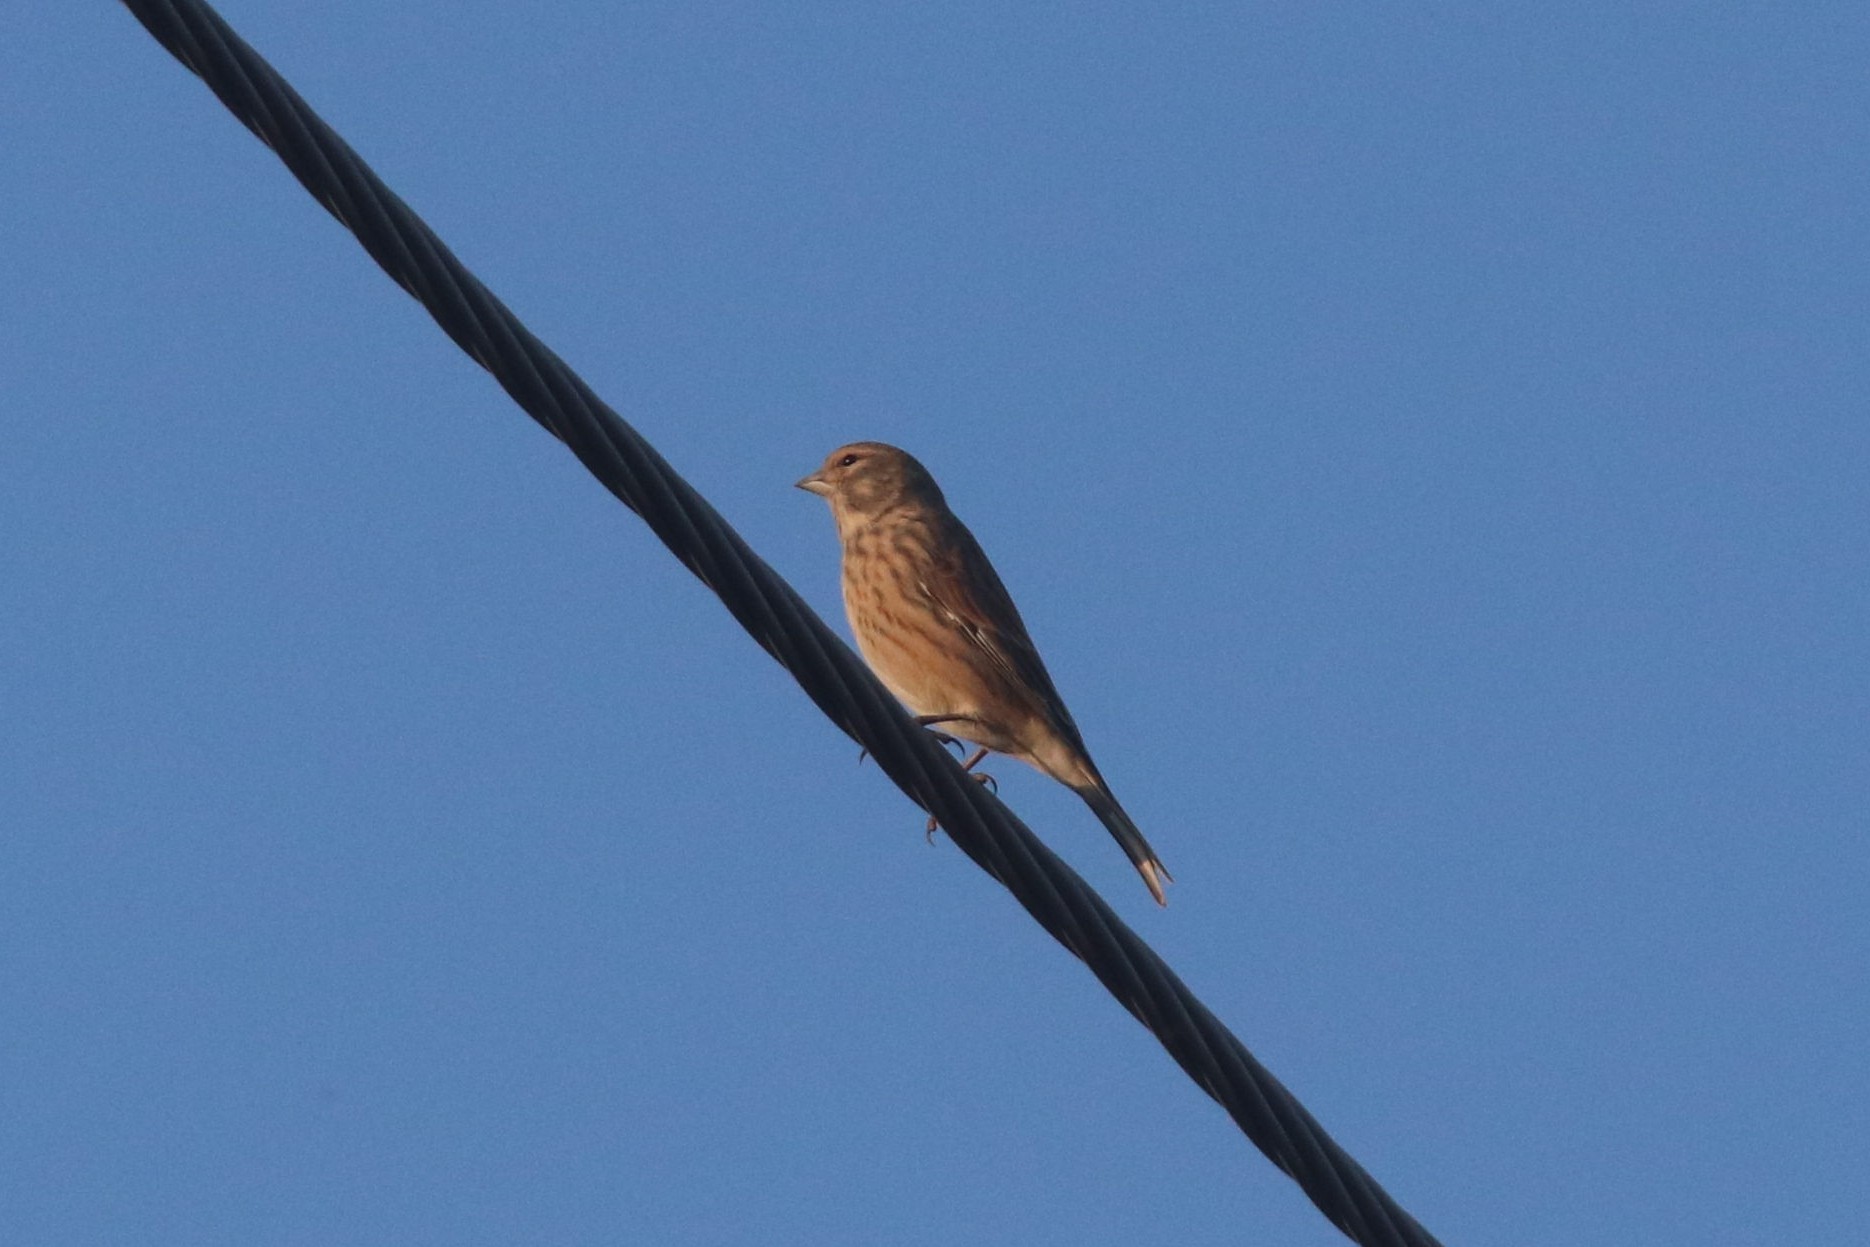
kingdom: Animalia
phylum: Chordata
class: Aves
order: Passeriformes
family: Fringillidae
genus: Linaria
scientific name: Linaria cannabina
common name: Common linnet
